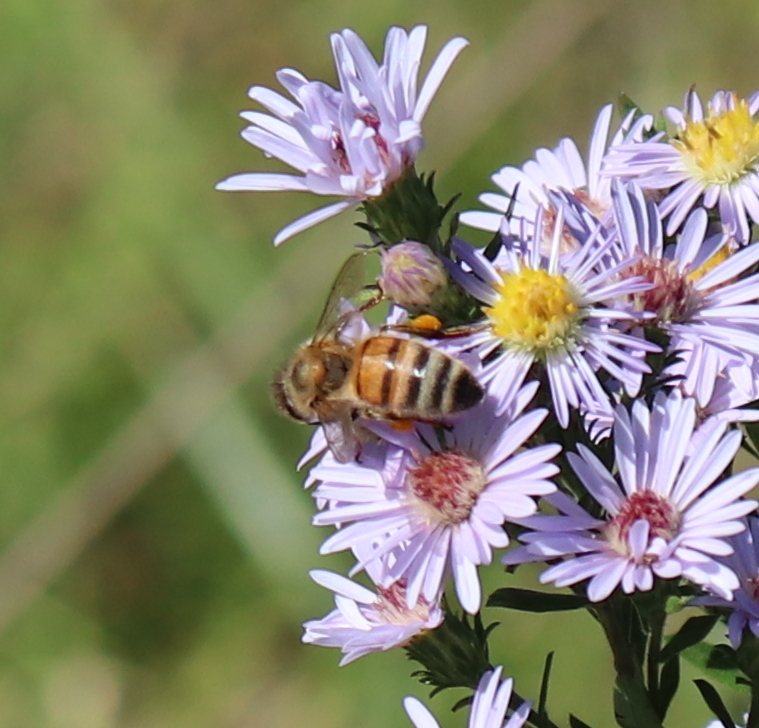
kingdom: Animalia
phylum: Arthropoda
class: Insecta
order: Hymenoptera
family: Apidae
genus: Apis
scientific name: Apis mellifera
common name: Honey bee
